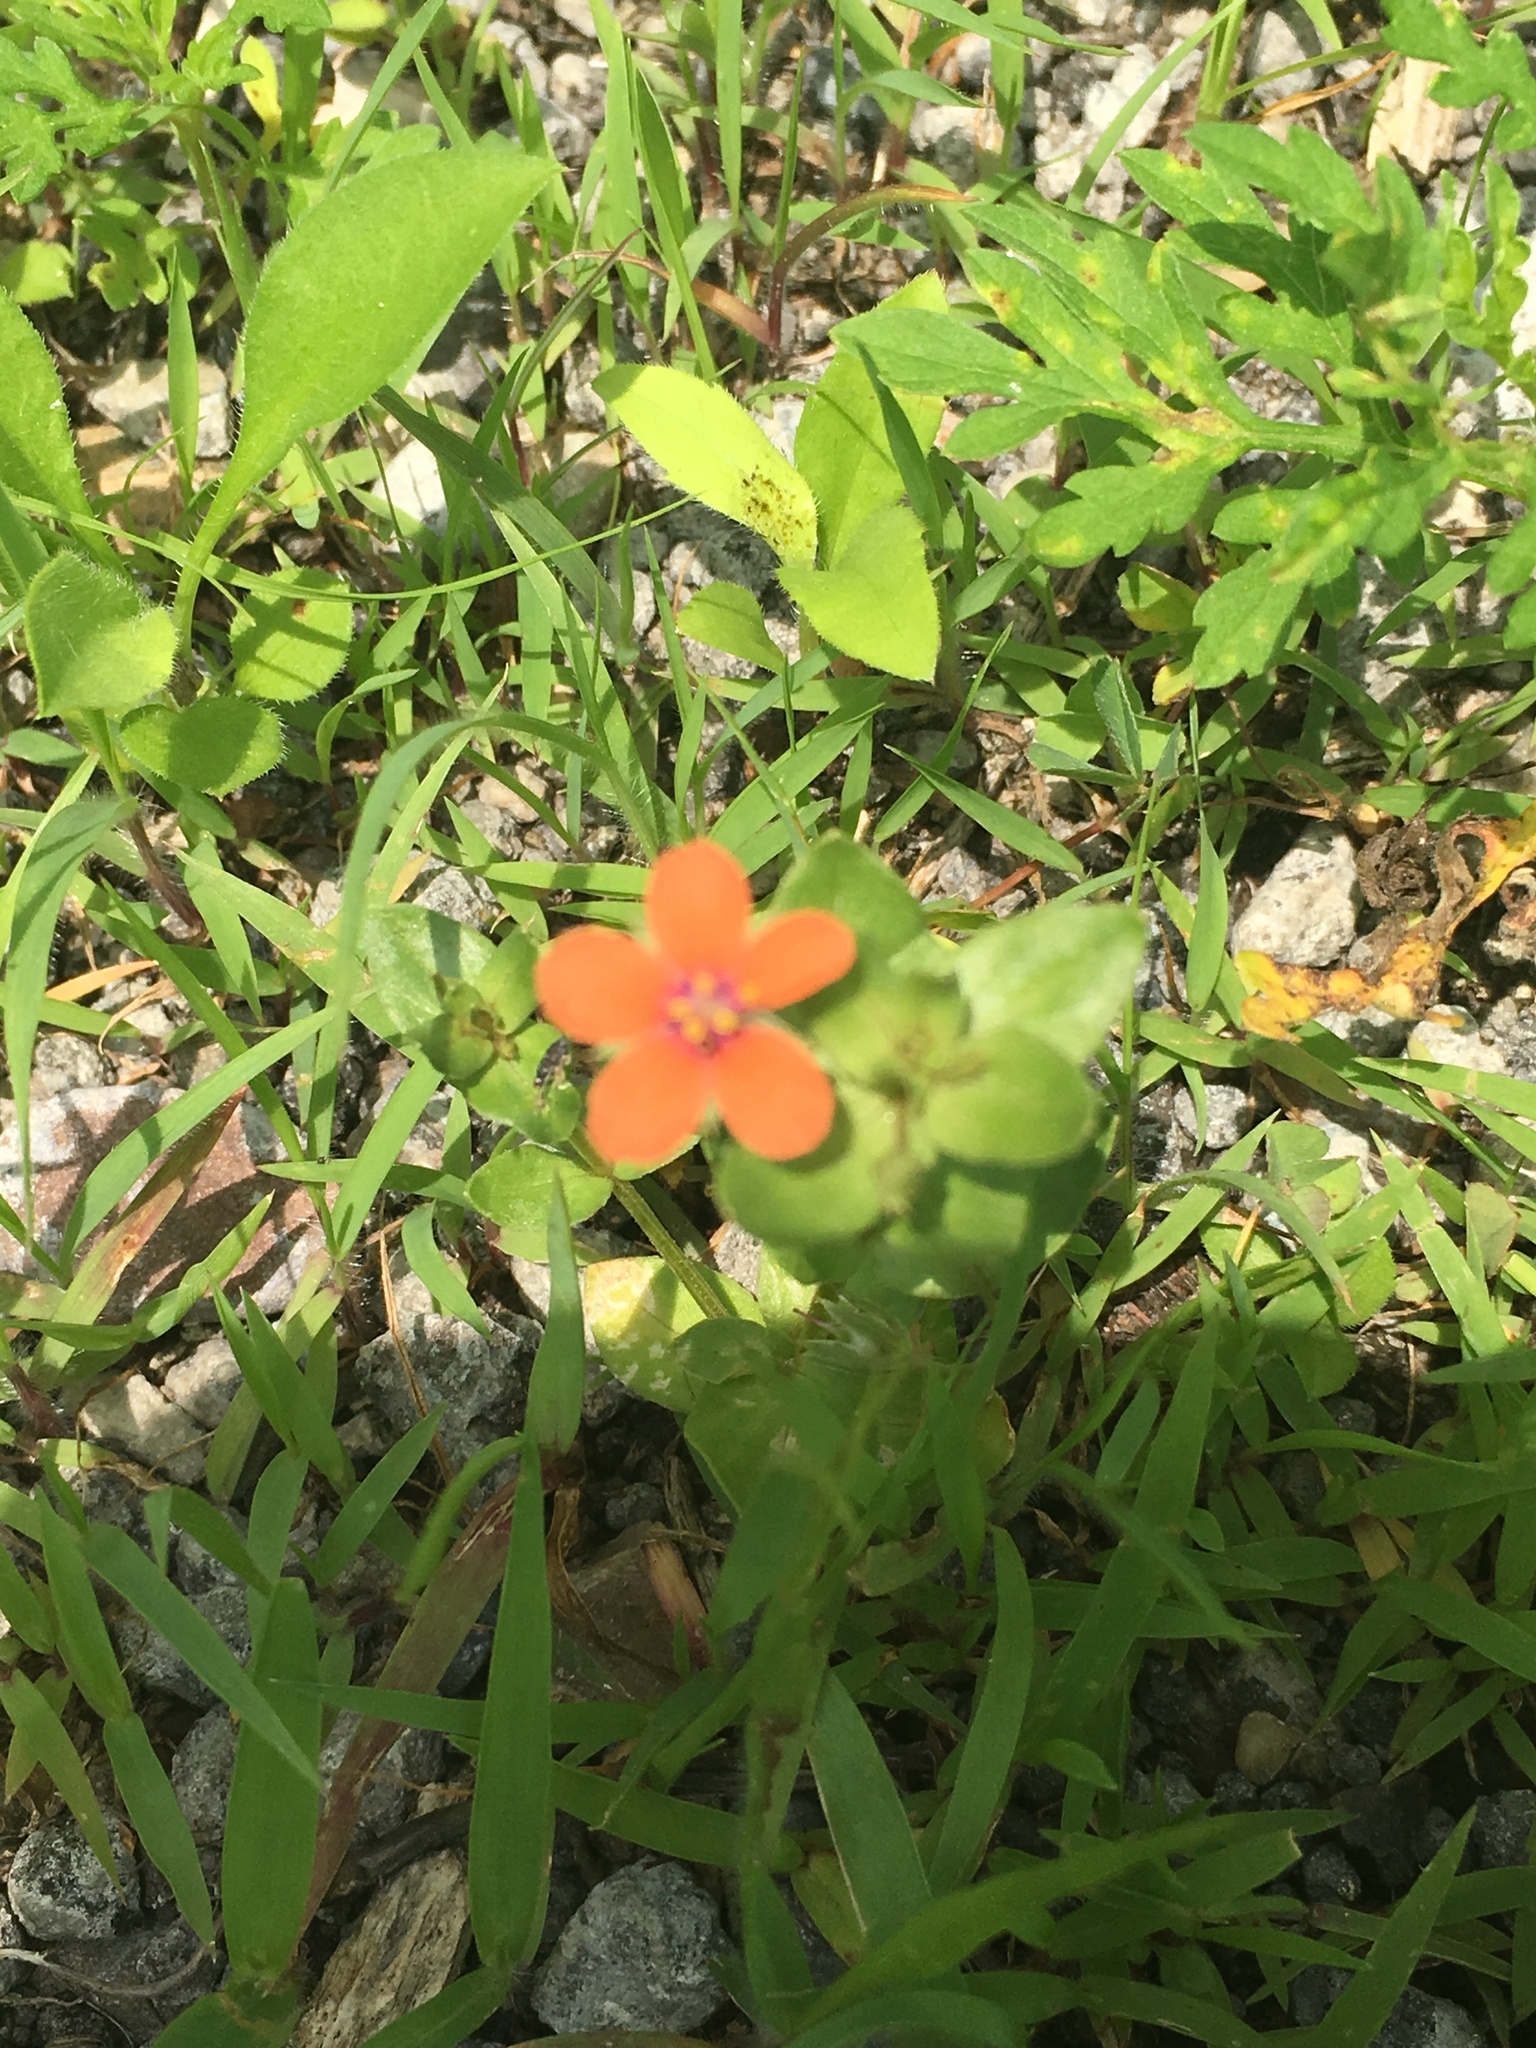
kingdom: Plantae
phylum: Tracheophyta
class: Magnoliopsida
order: Ericales
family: Primulaceae
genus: Lysimachia
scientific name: Lysimachia arvensis
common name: Scarlet pimpernel
